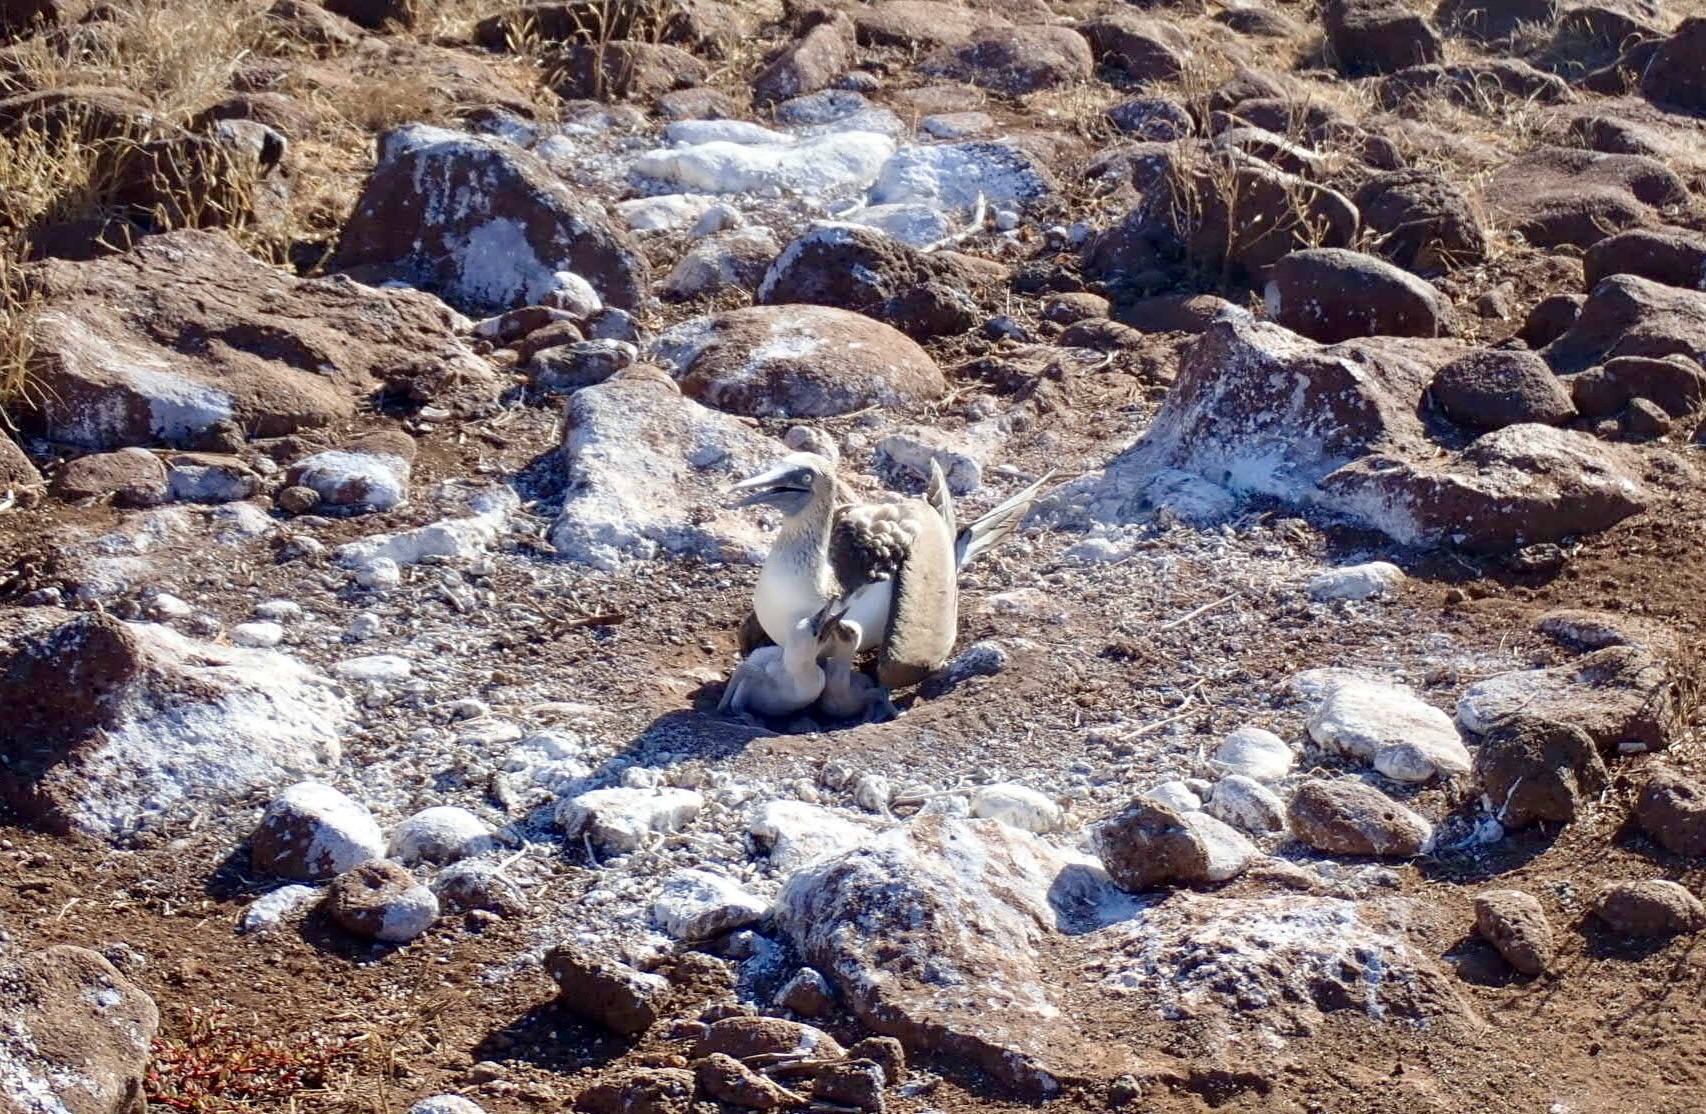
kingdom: Animalia
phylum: Chordata
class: Aves
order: Suliformes
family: Sulidae
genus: Sula
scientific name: Sula nebouxii
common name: Blue-footed booby
